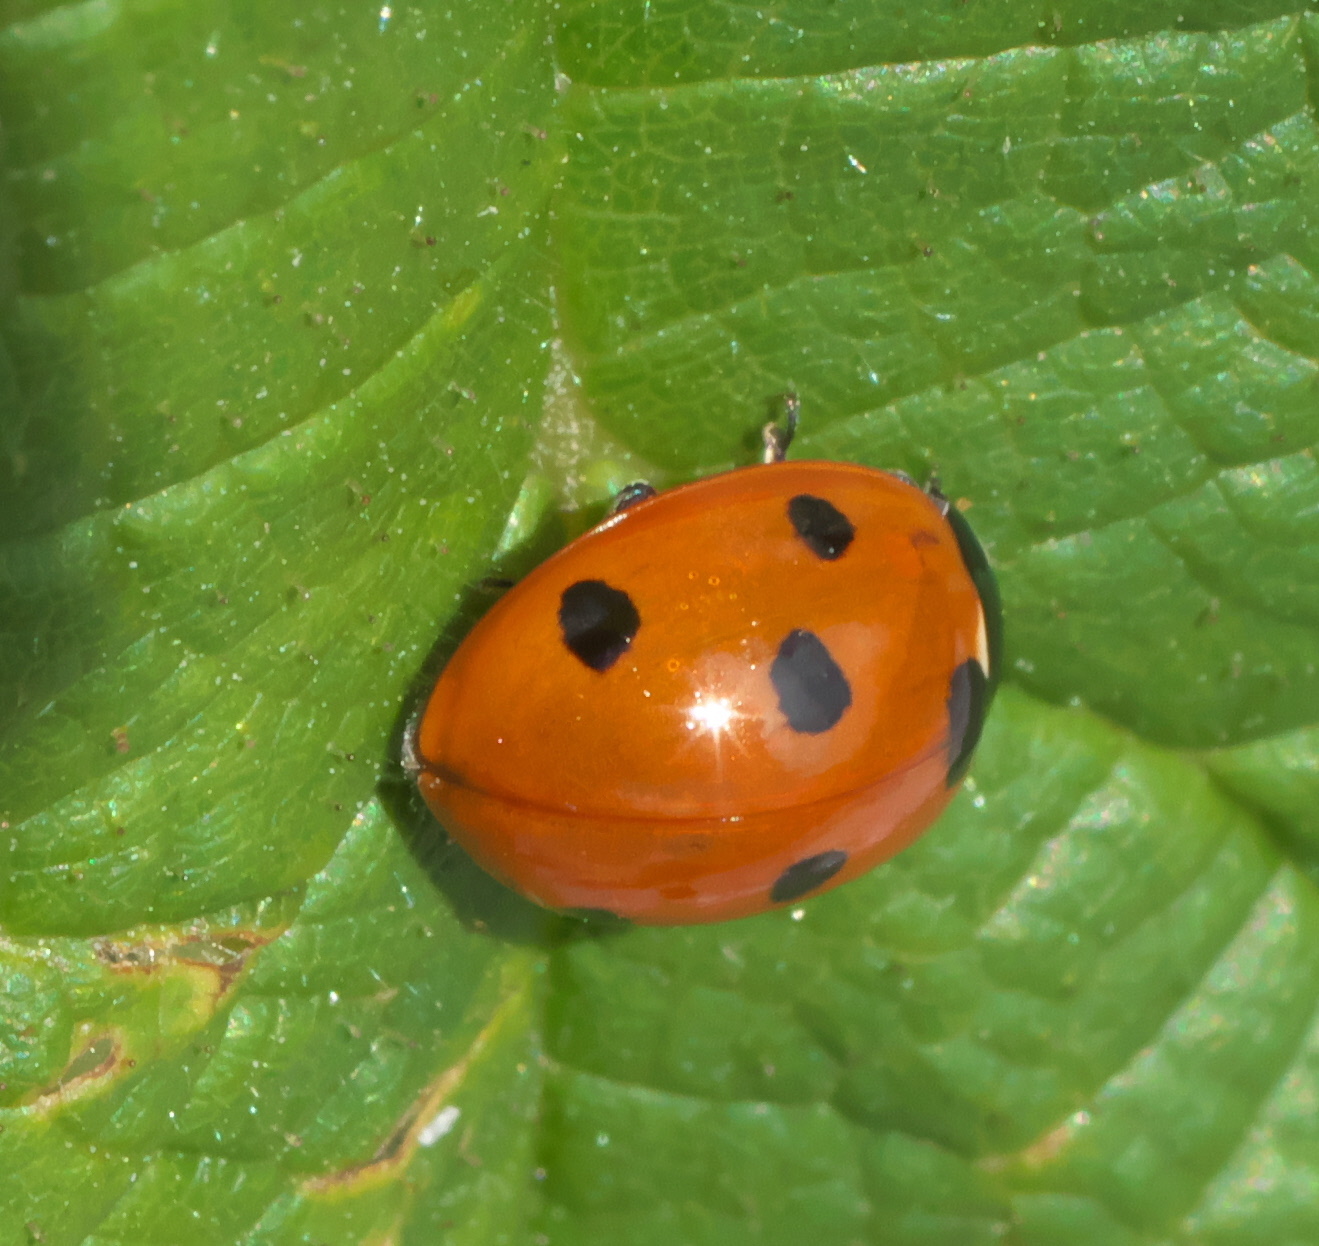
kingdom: Animalia
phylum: Arthropoda
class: Insecta
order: Coleoptera
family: Coccinellidae
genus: Coccinella
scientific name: Coccinella septempunctata
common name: Sevenspotted lady beetle
